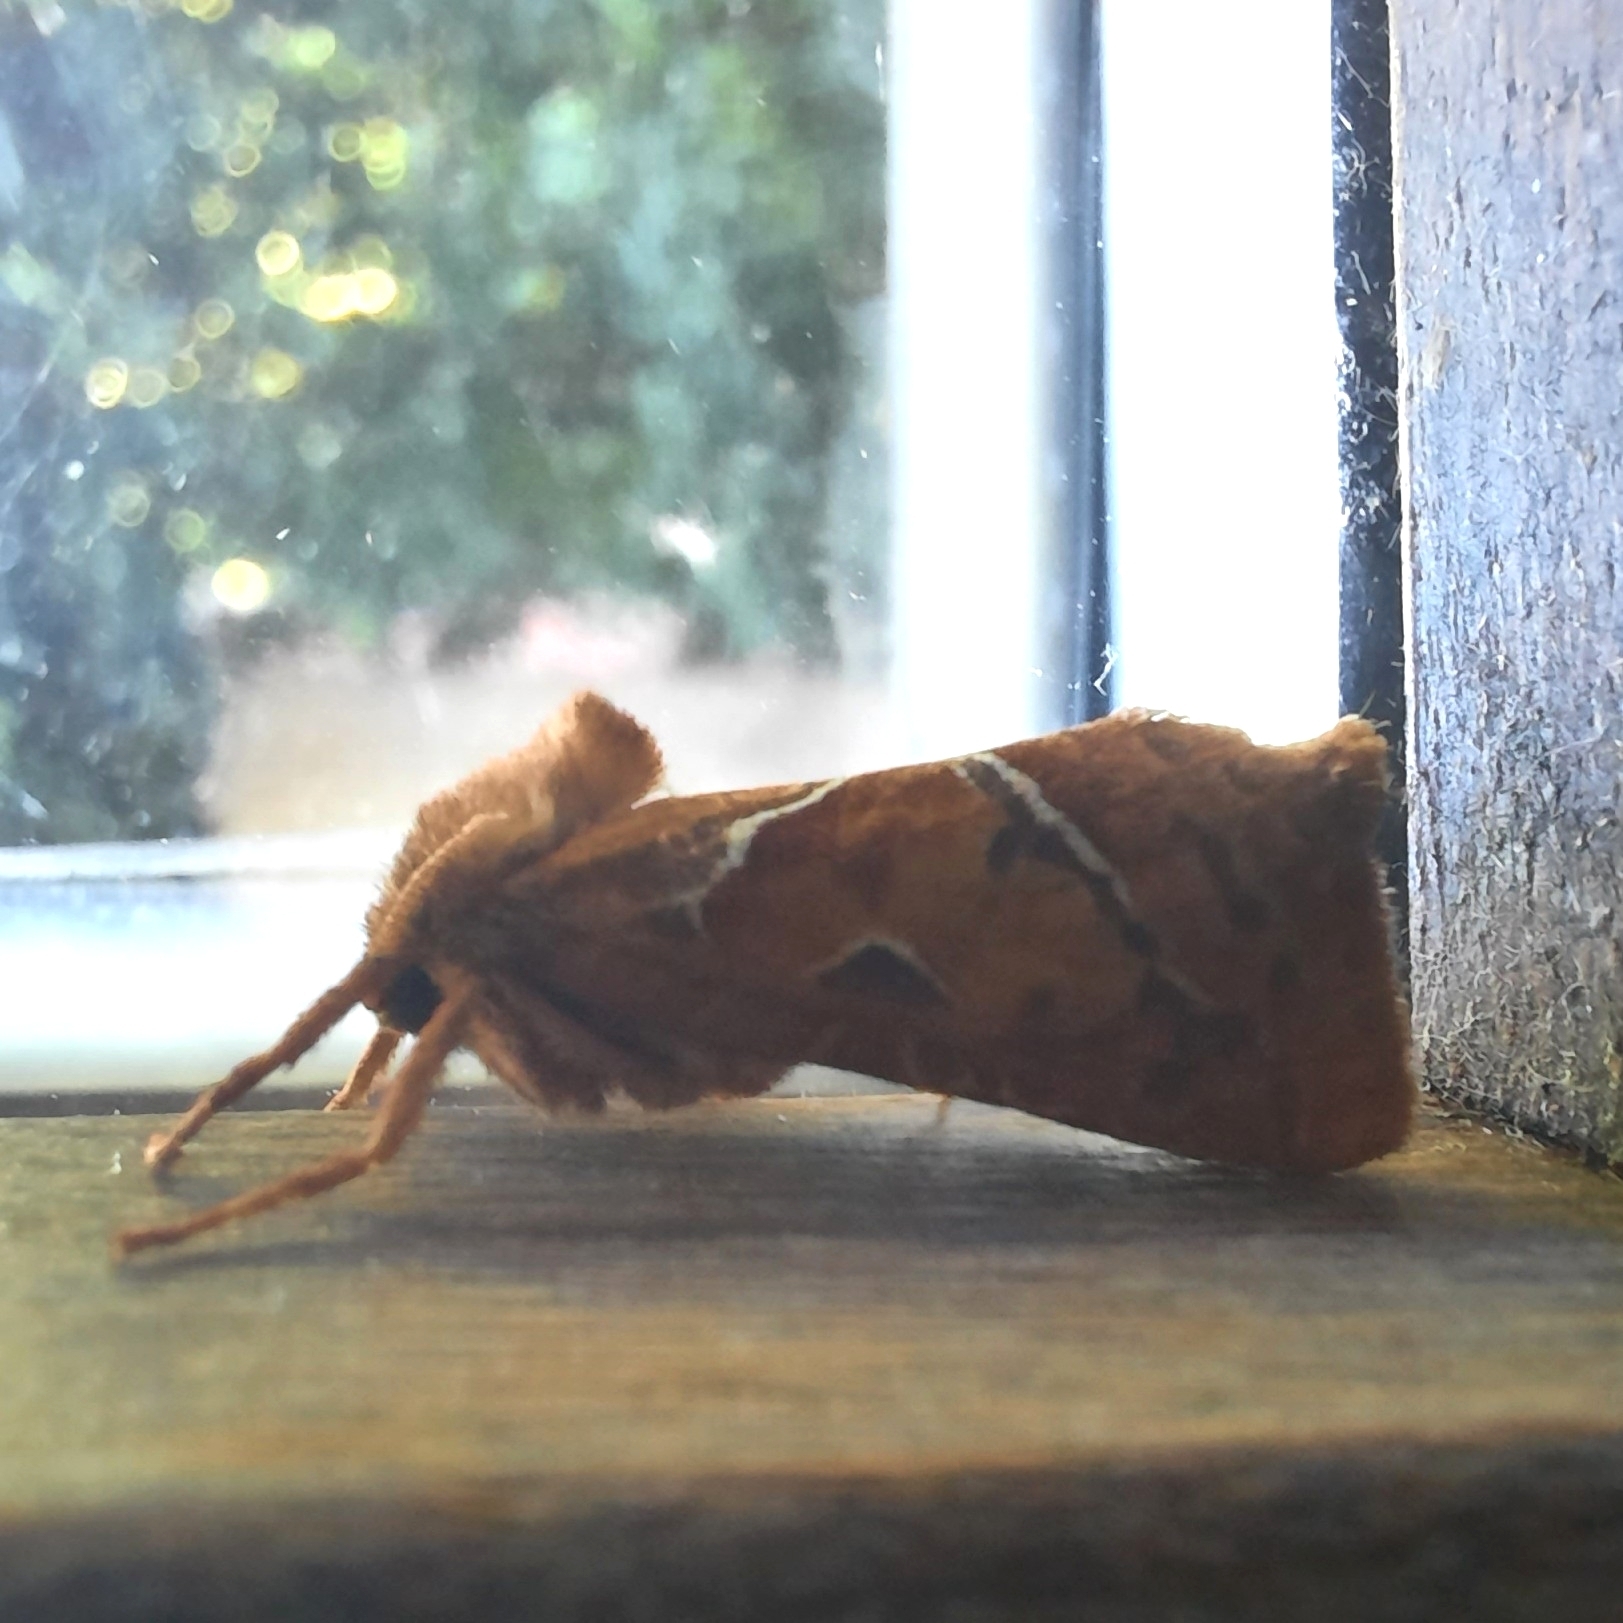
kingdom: Animalia
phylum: Arthropoda
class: Insecta
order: Lepidoptera
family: Hepialidae
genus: Triodia
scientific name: Triodia sylvina
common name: Orange swift
